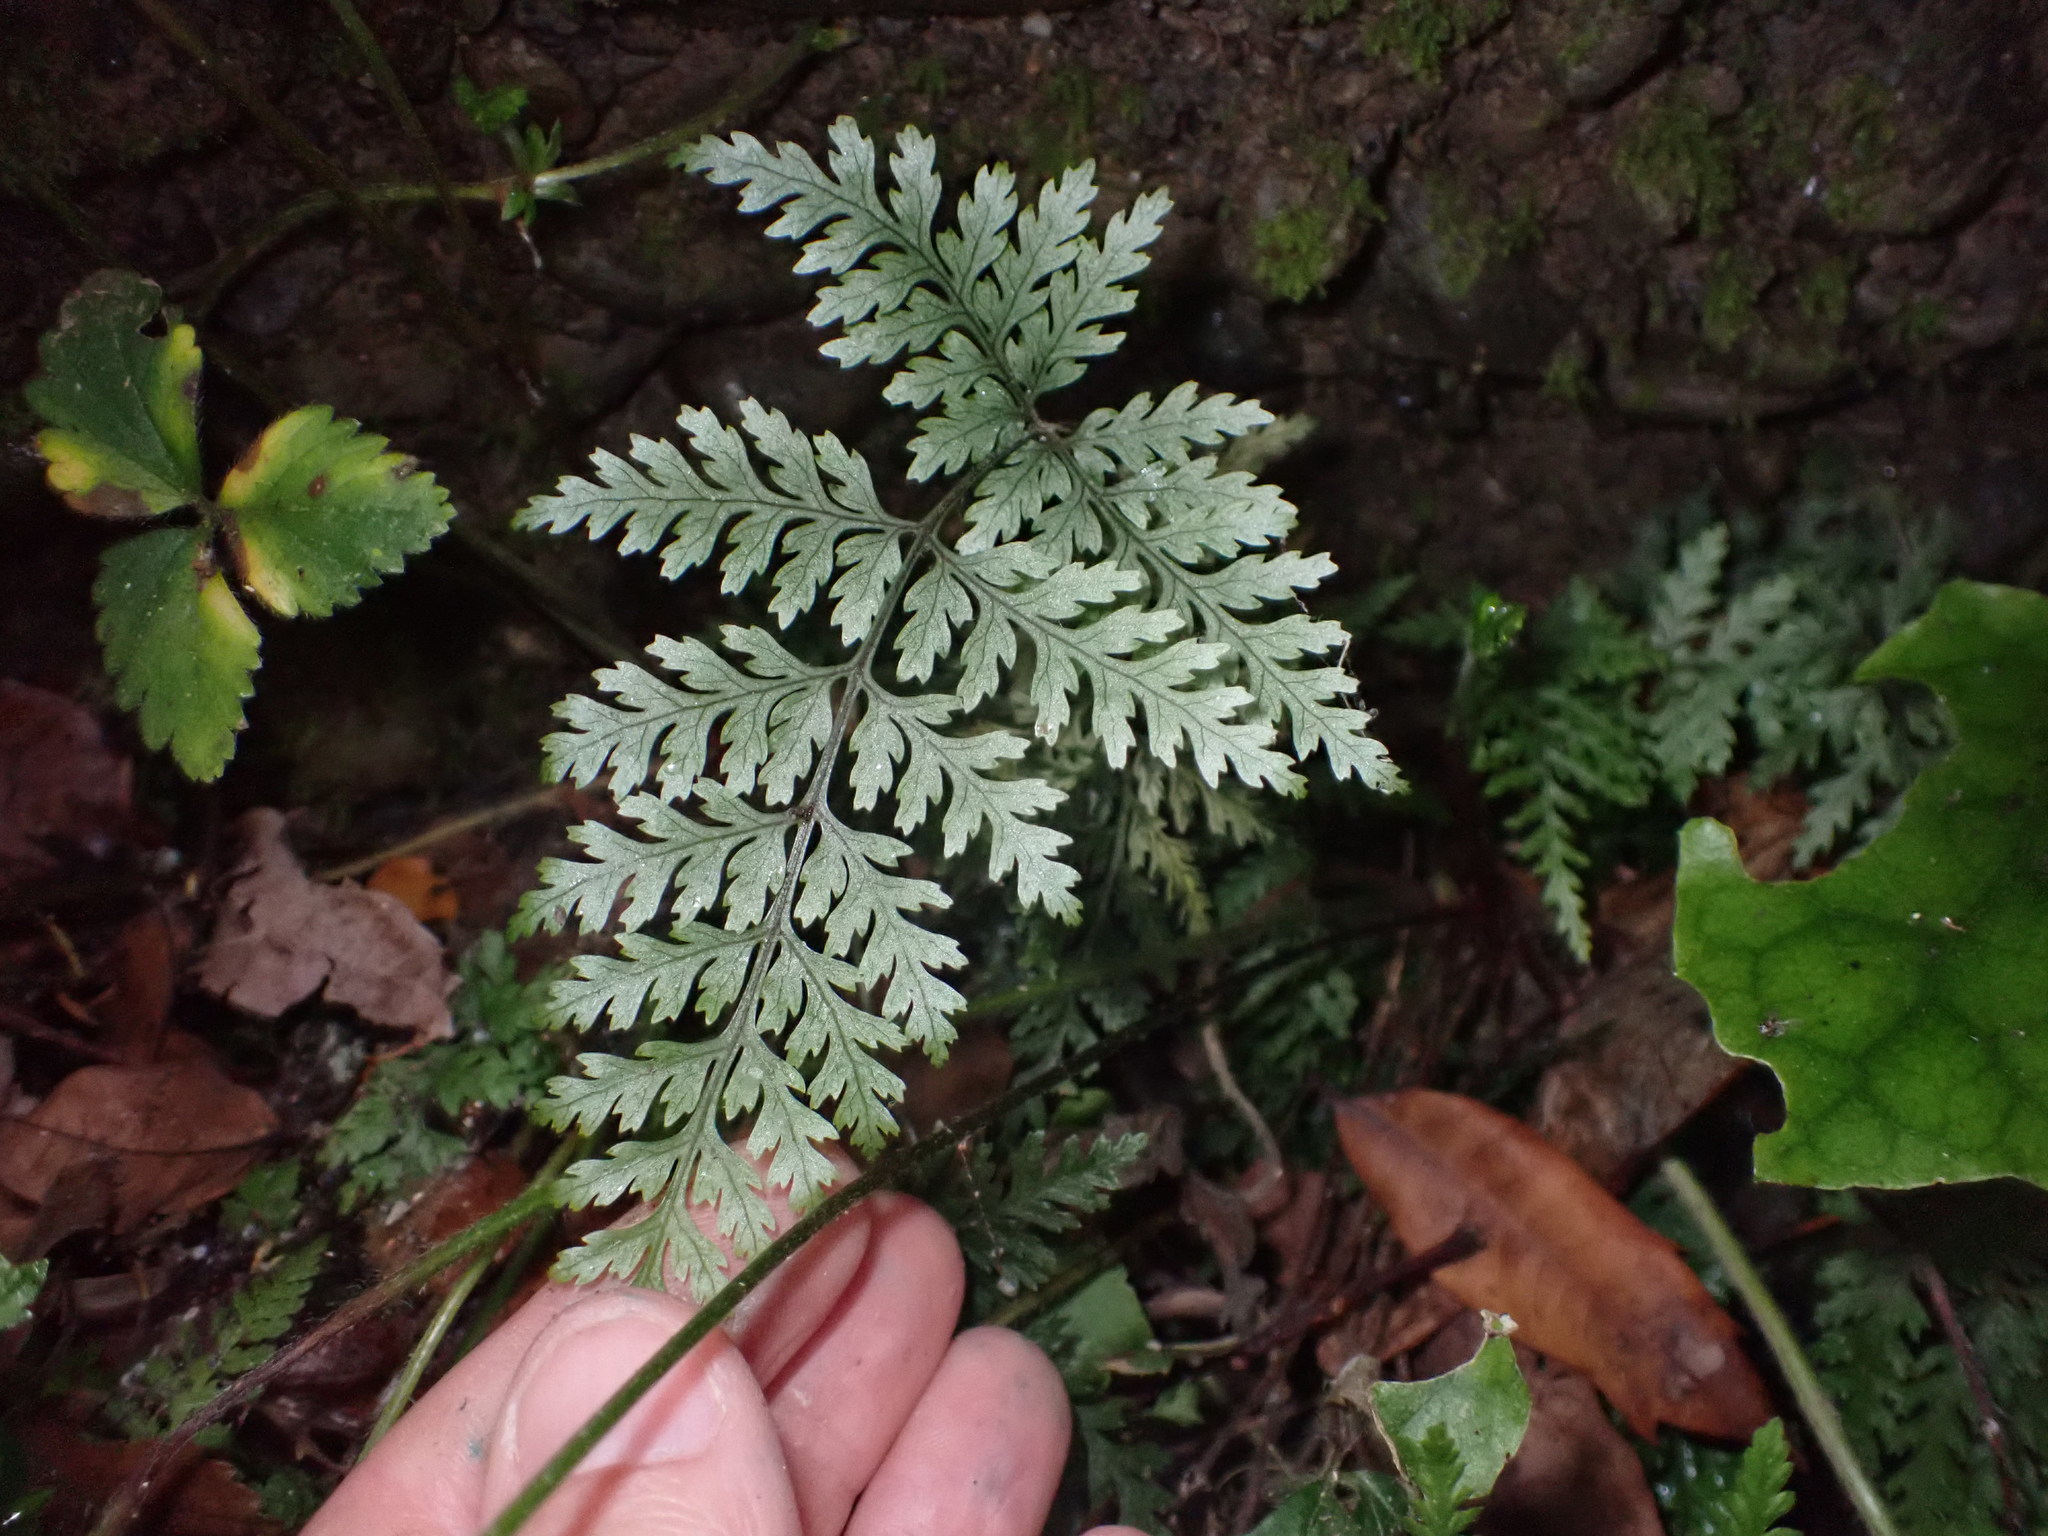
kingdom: Plantae
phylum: Tracheophyta
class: Polypodiopsida
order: Polypodiales
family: Dryopteridaceae
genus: Parapolystichum
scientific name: Parapolystichum glabellum
